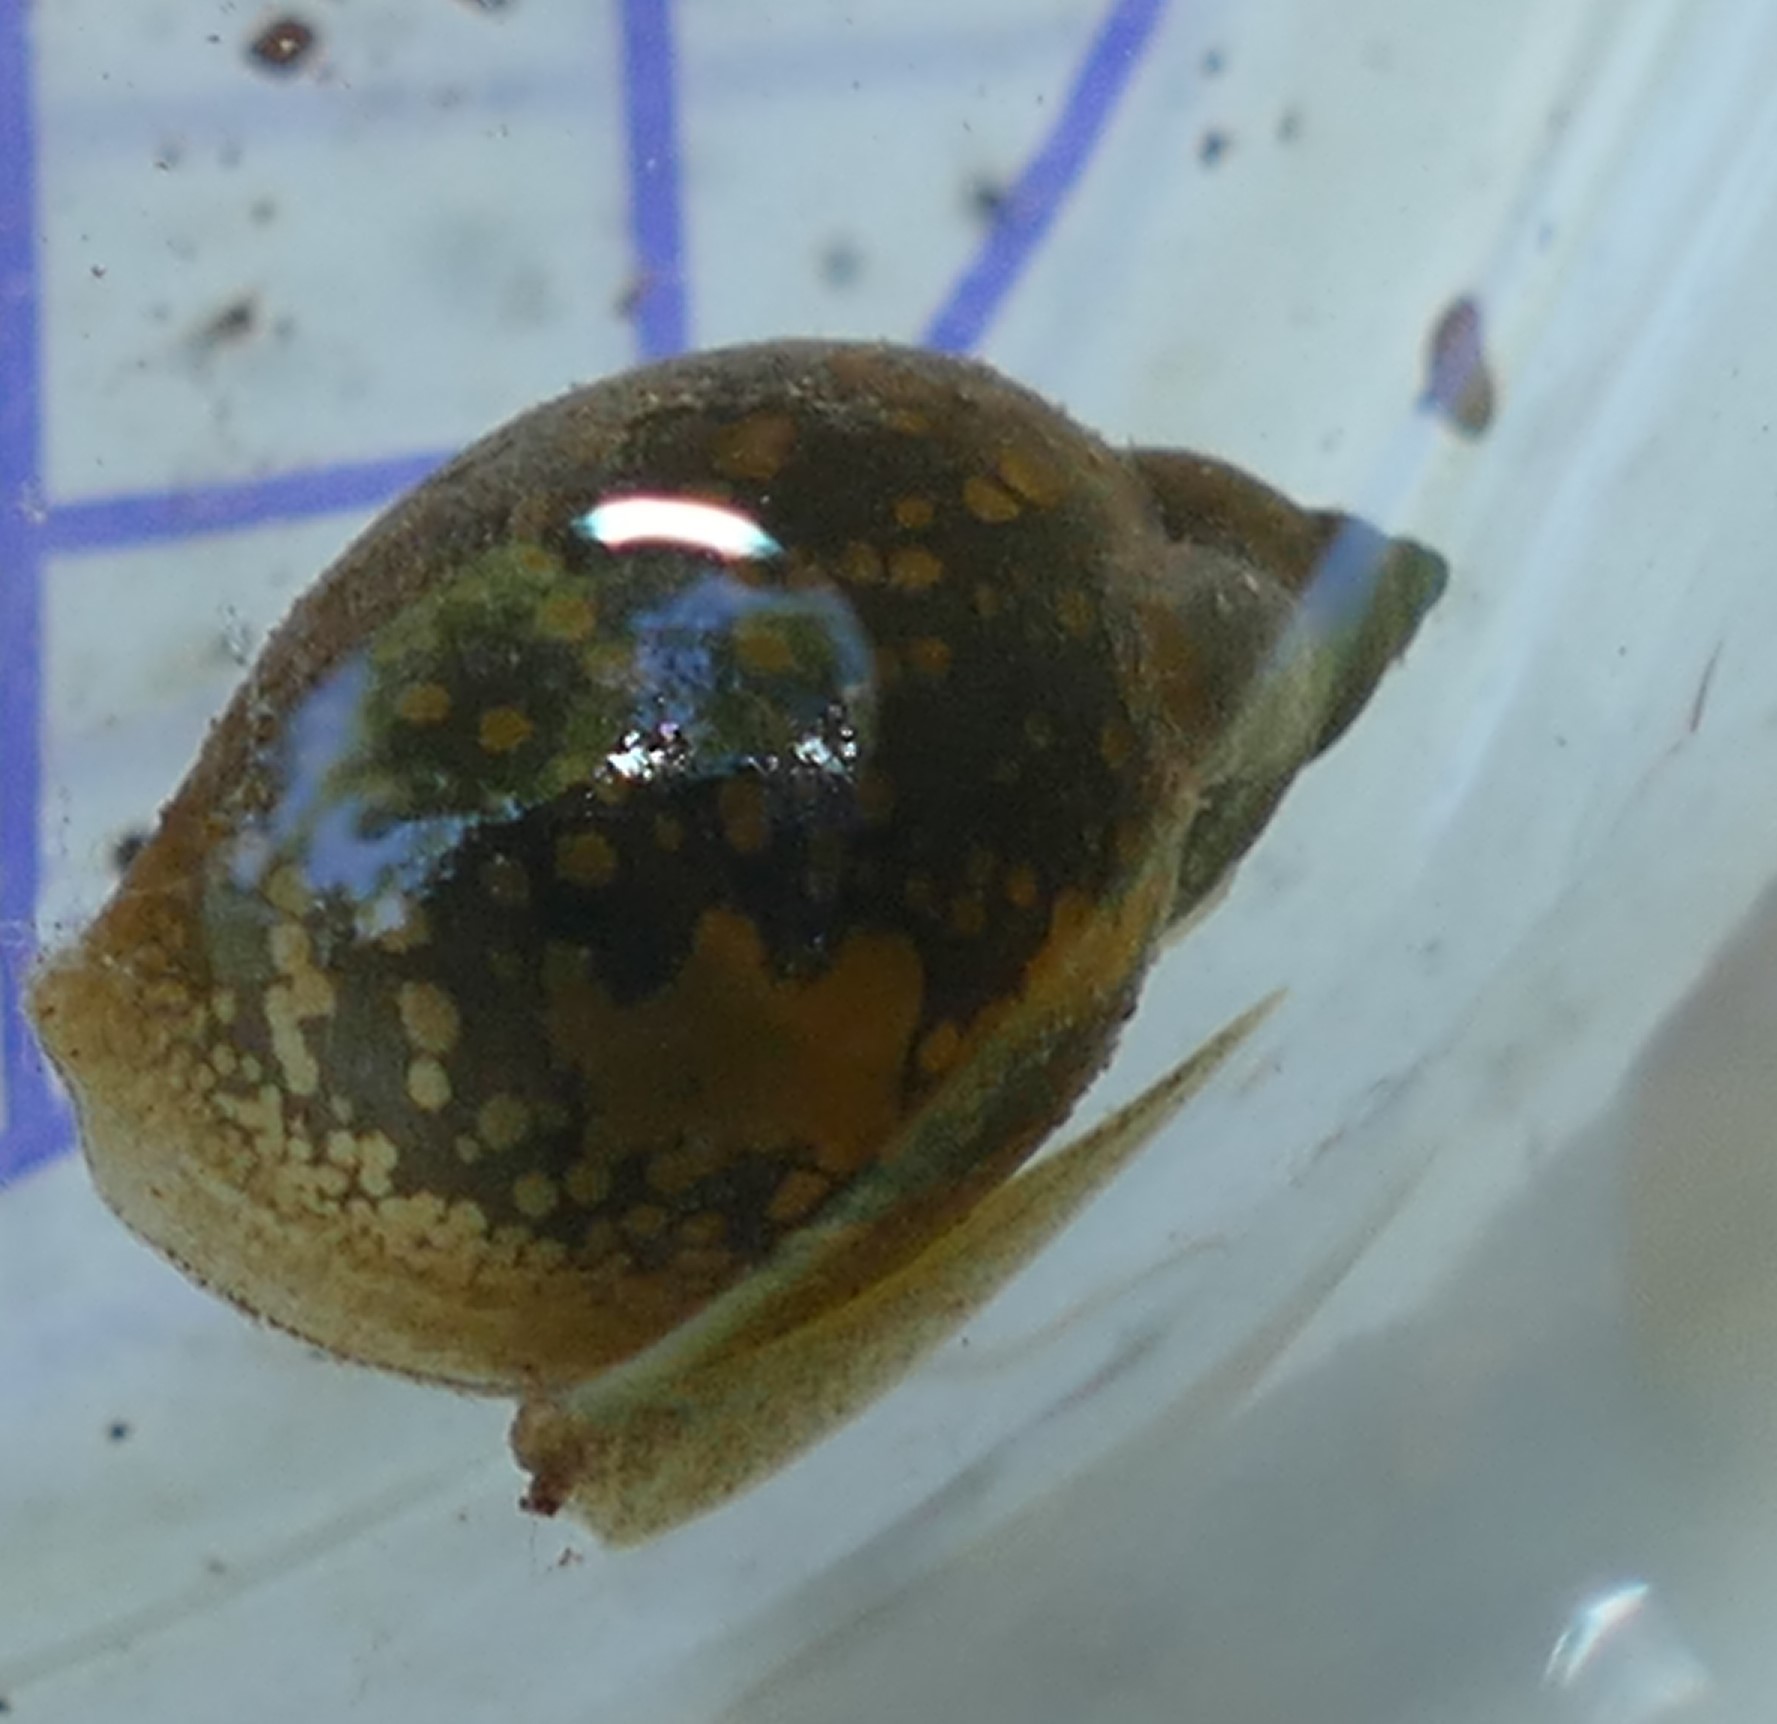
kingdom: Animalia
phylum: Mollusca
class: Gastropoda
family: Physidae
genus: Physella
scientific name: Physella acuta
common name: European physa
